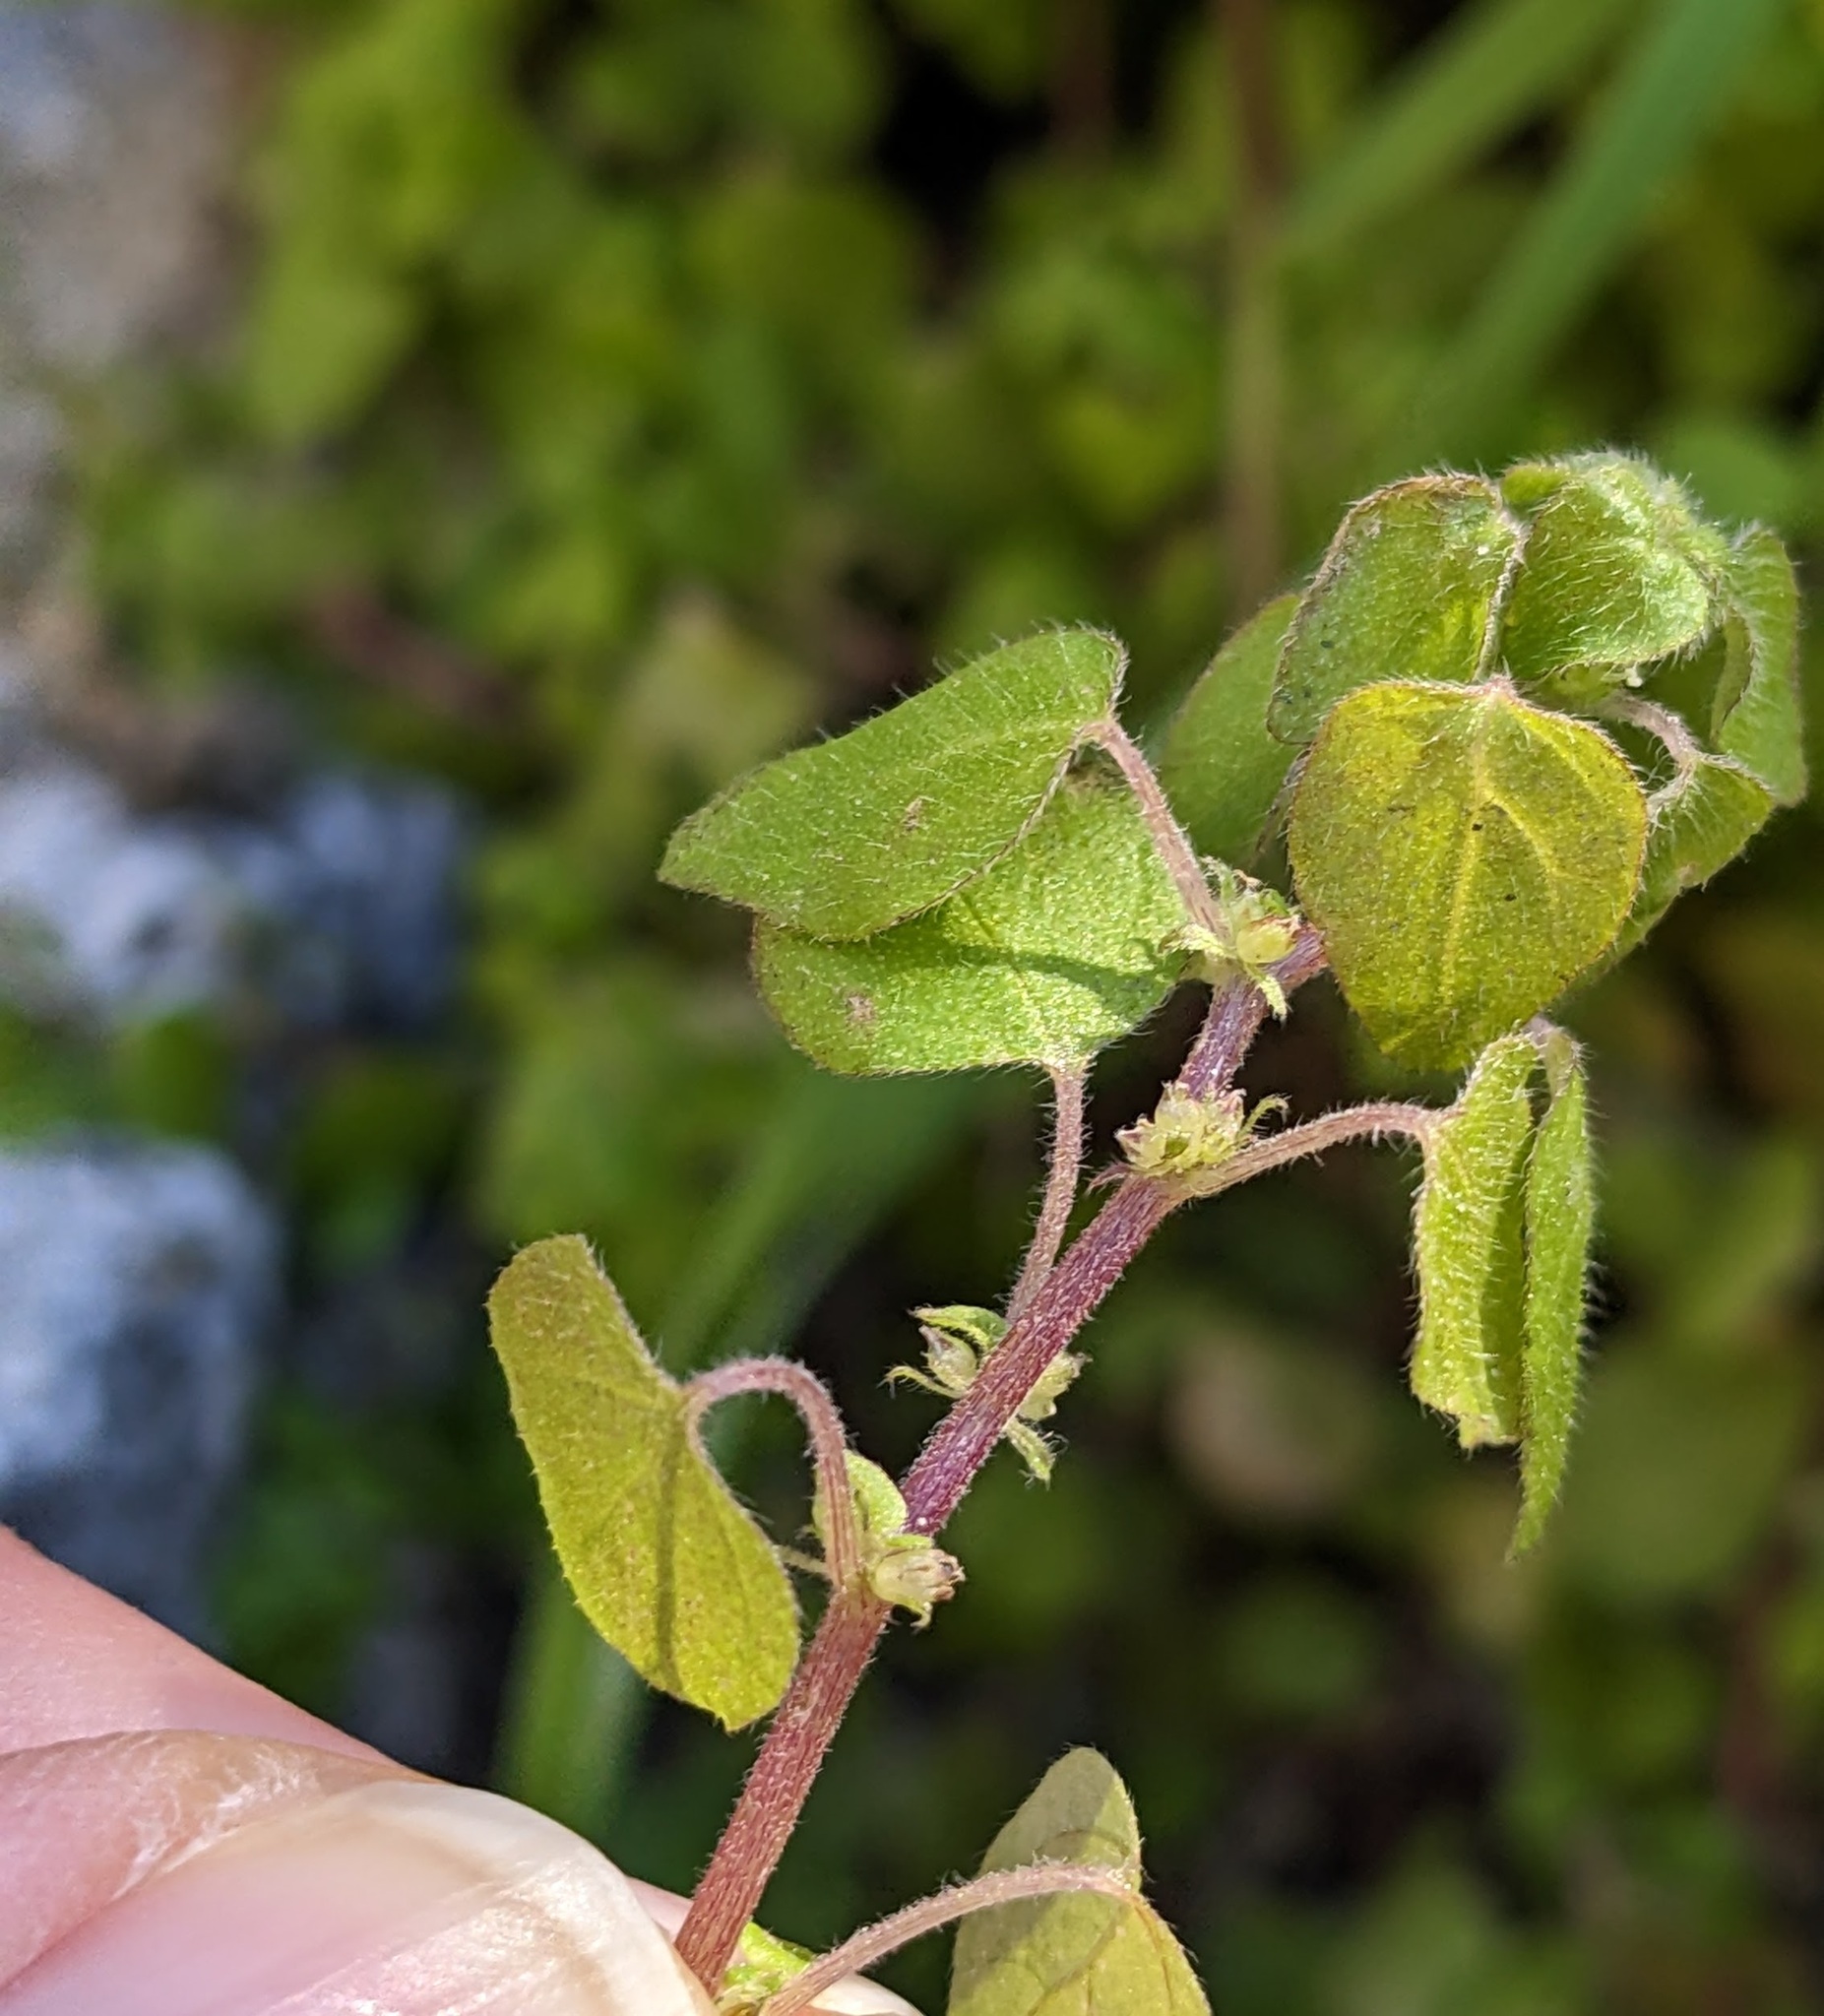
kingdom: Plantae
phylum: Tracheophyta
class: Magnoliopsida
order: Rosales
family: Urticaceae
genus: Parietaria
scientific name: Parietaria hespera
